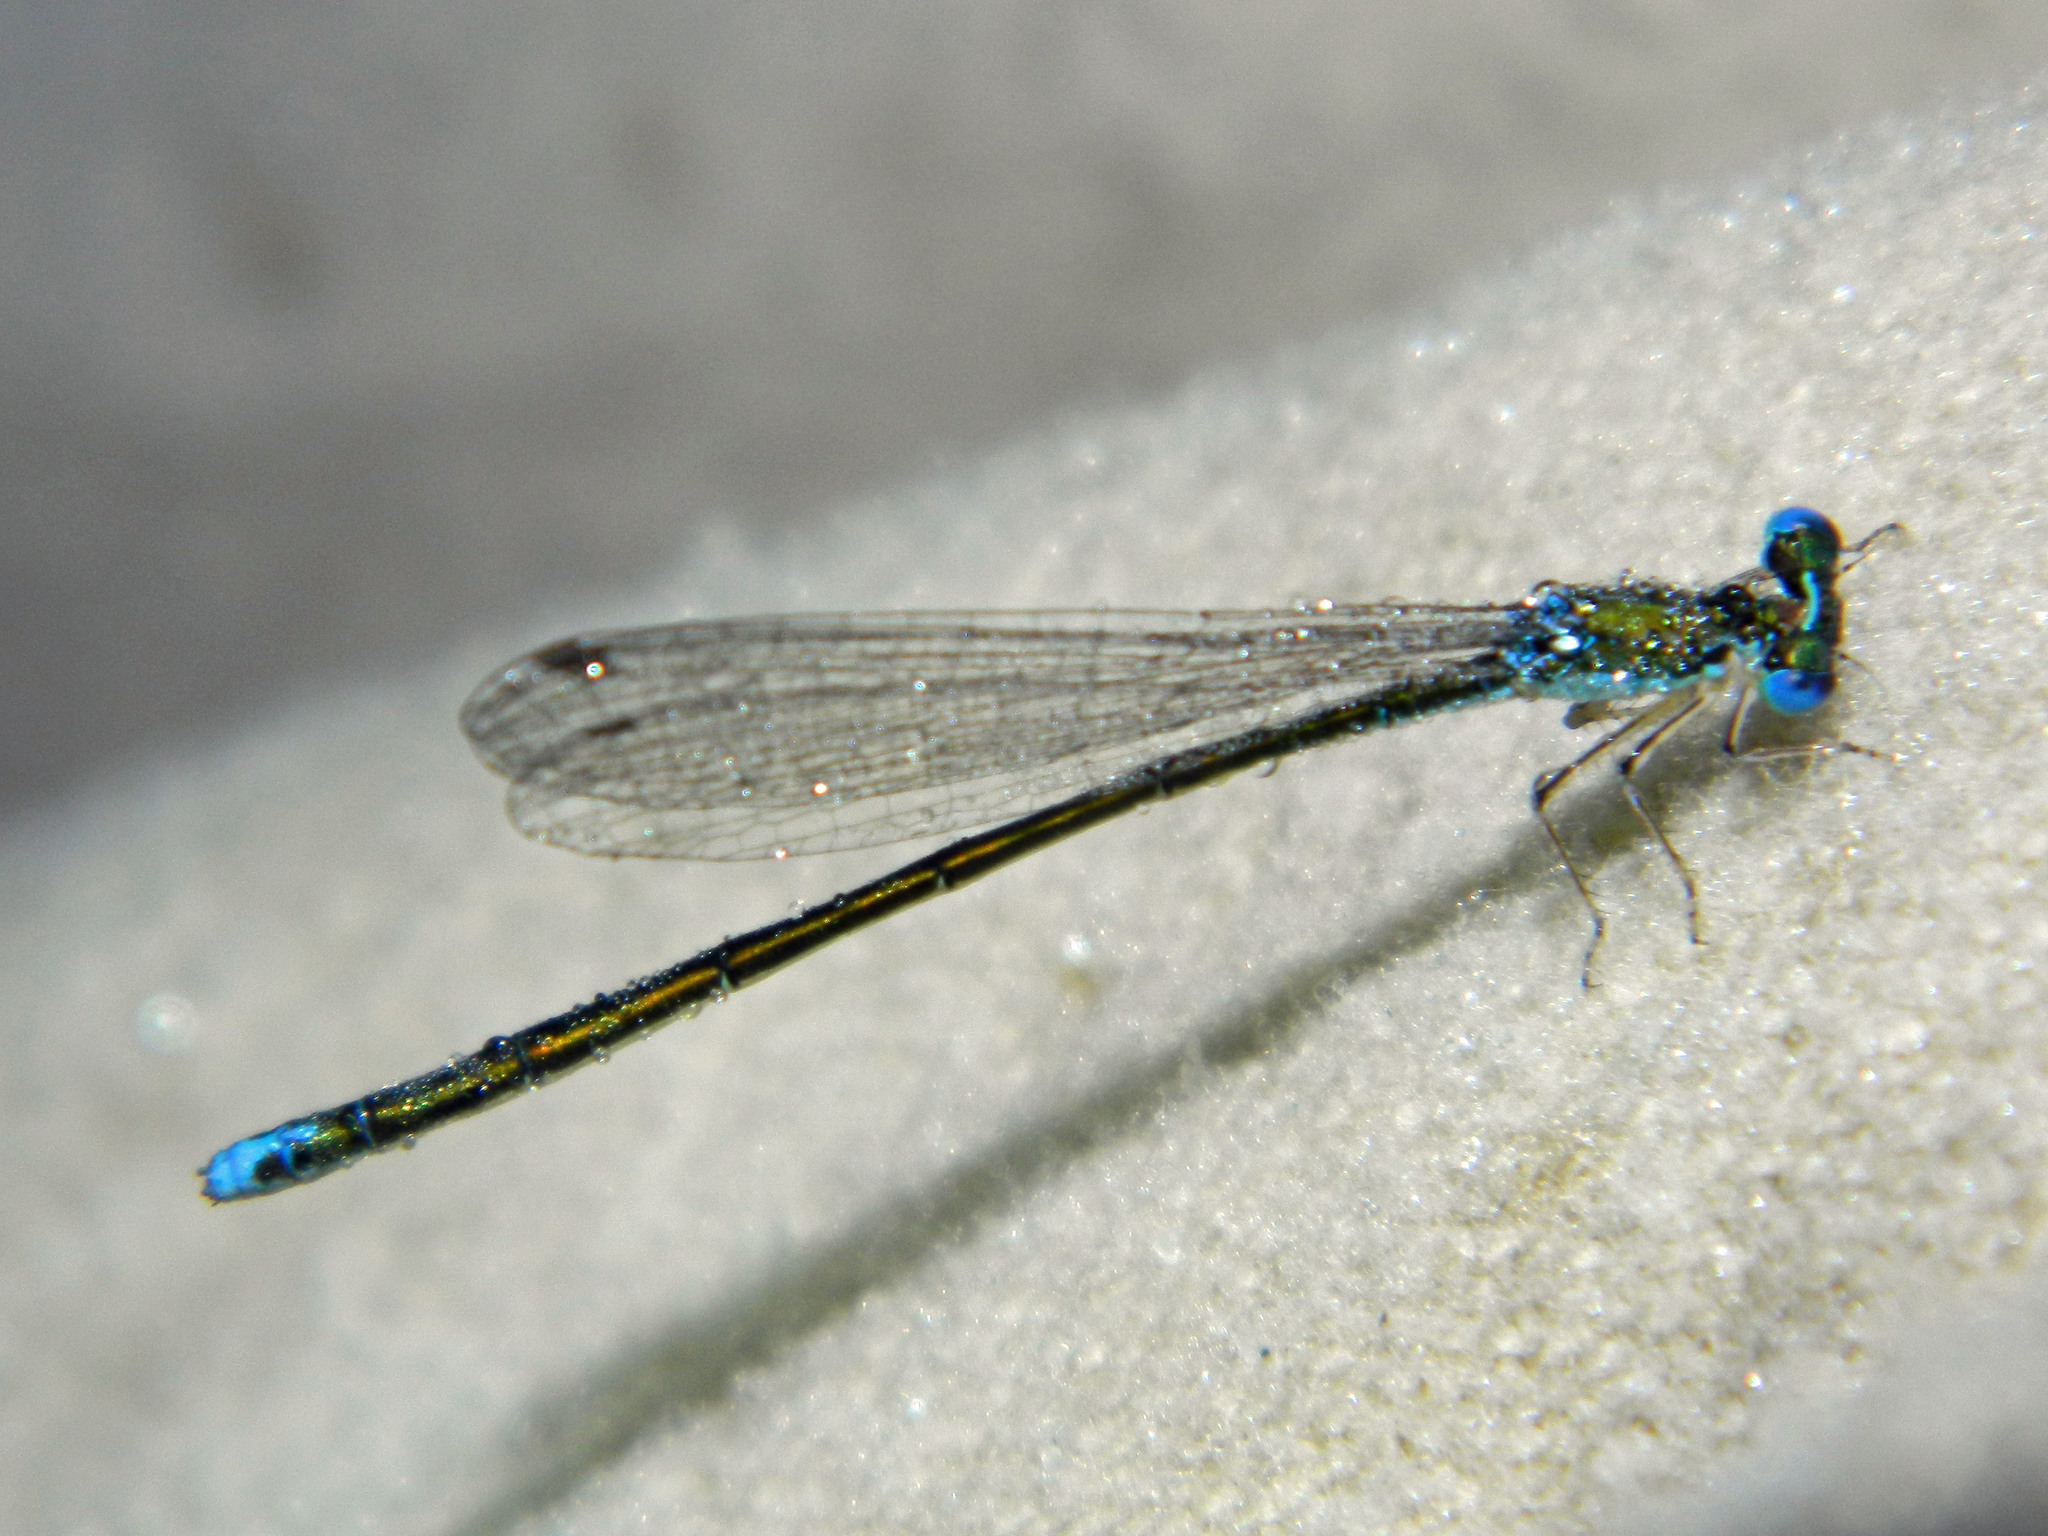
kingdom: Animalia
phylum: Arthropoda
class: Insecta
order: Odonata
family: Coenagrionidae
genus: Nehalennia
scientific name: Nehalennia irene
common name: Sedge sprite
